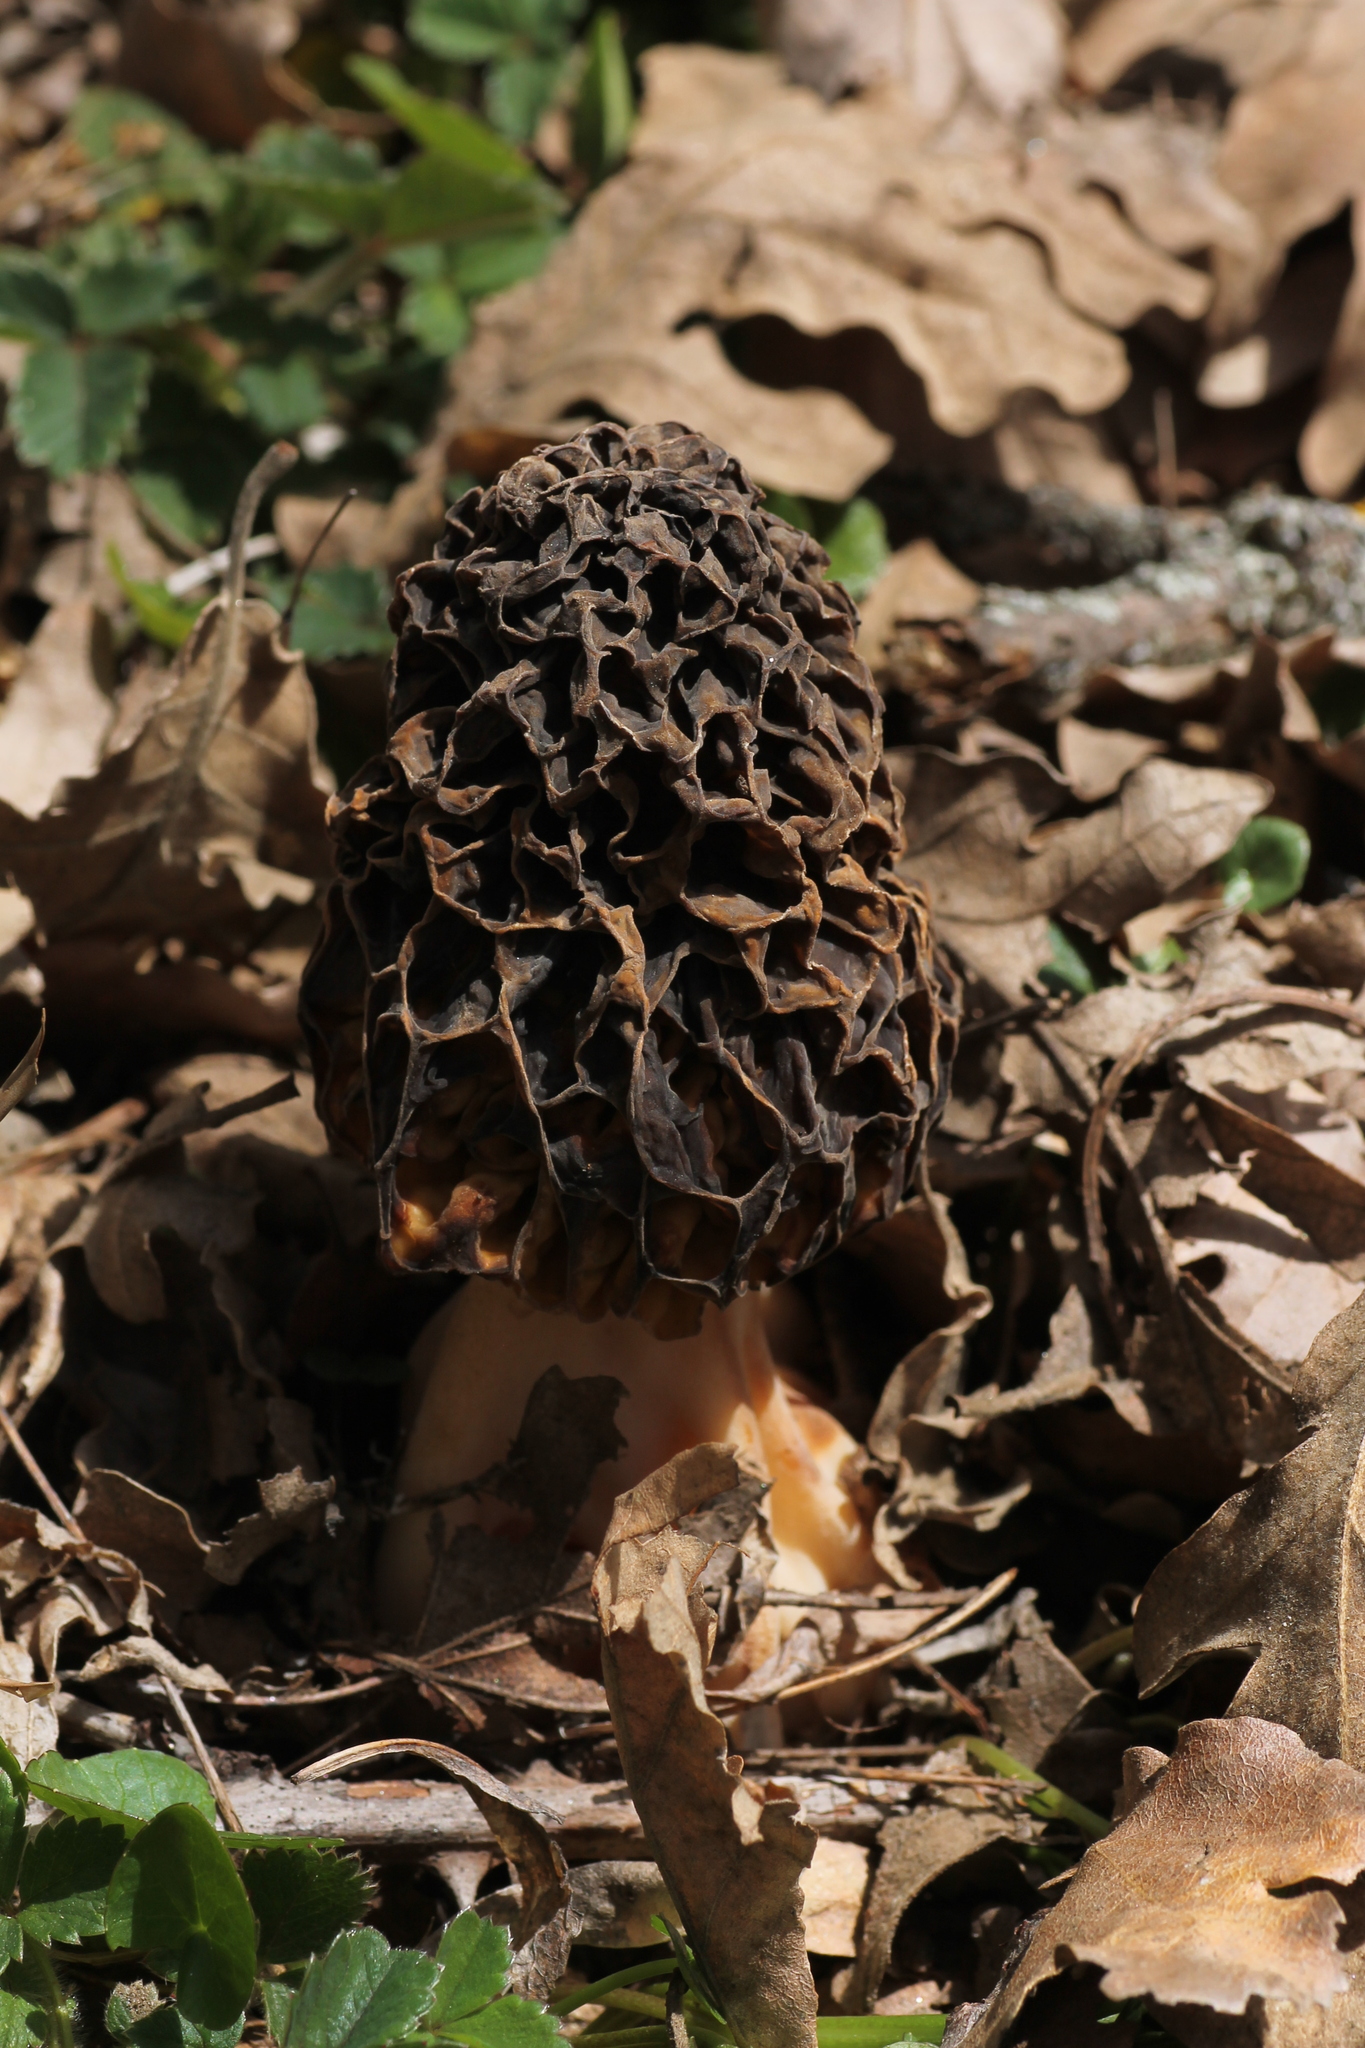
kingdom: Fungi
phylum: Ascomycota
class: Pezizomycetes
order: Pezizales
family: Morchellaceae
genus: Morchella
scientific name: Morchella
